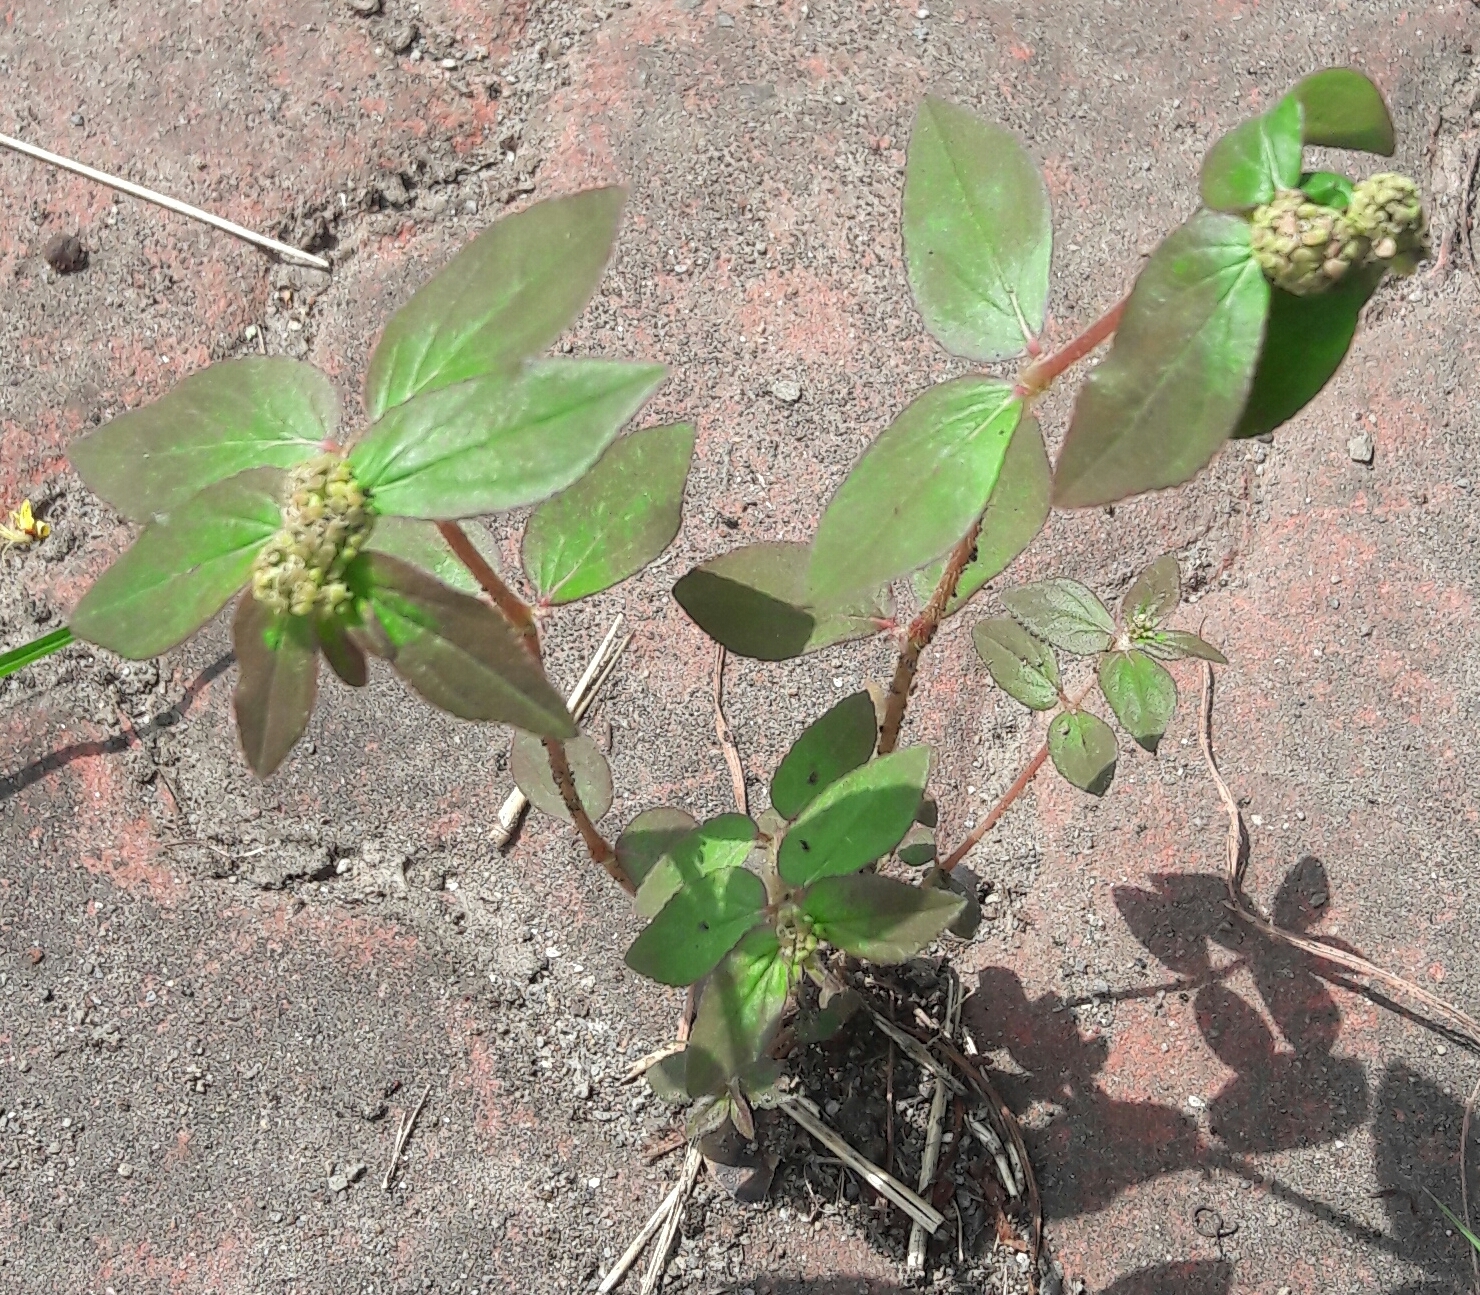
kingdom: Plantae
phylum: Tracheophyta
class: Magnoliopsida
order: Malpighiales
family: Euphorbiaceae
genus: Euphorbia
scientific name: Euphorbia hirta
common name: Pillpod sandmat
